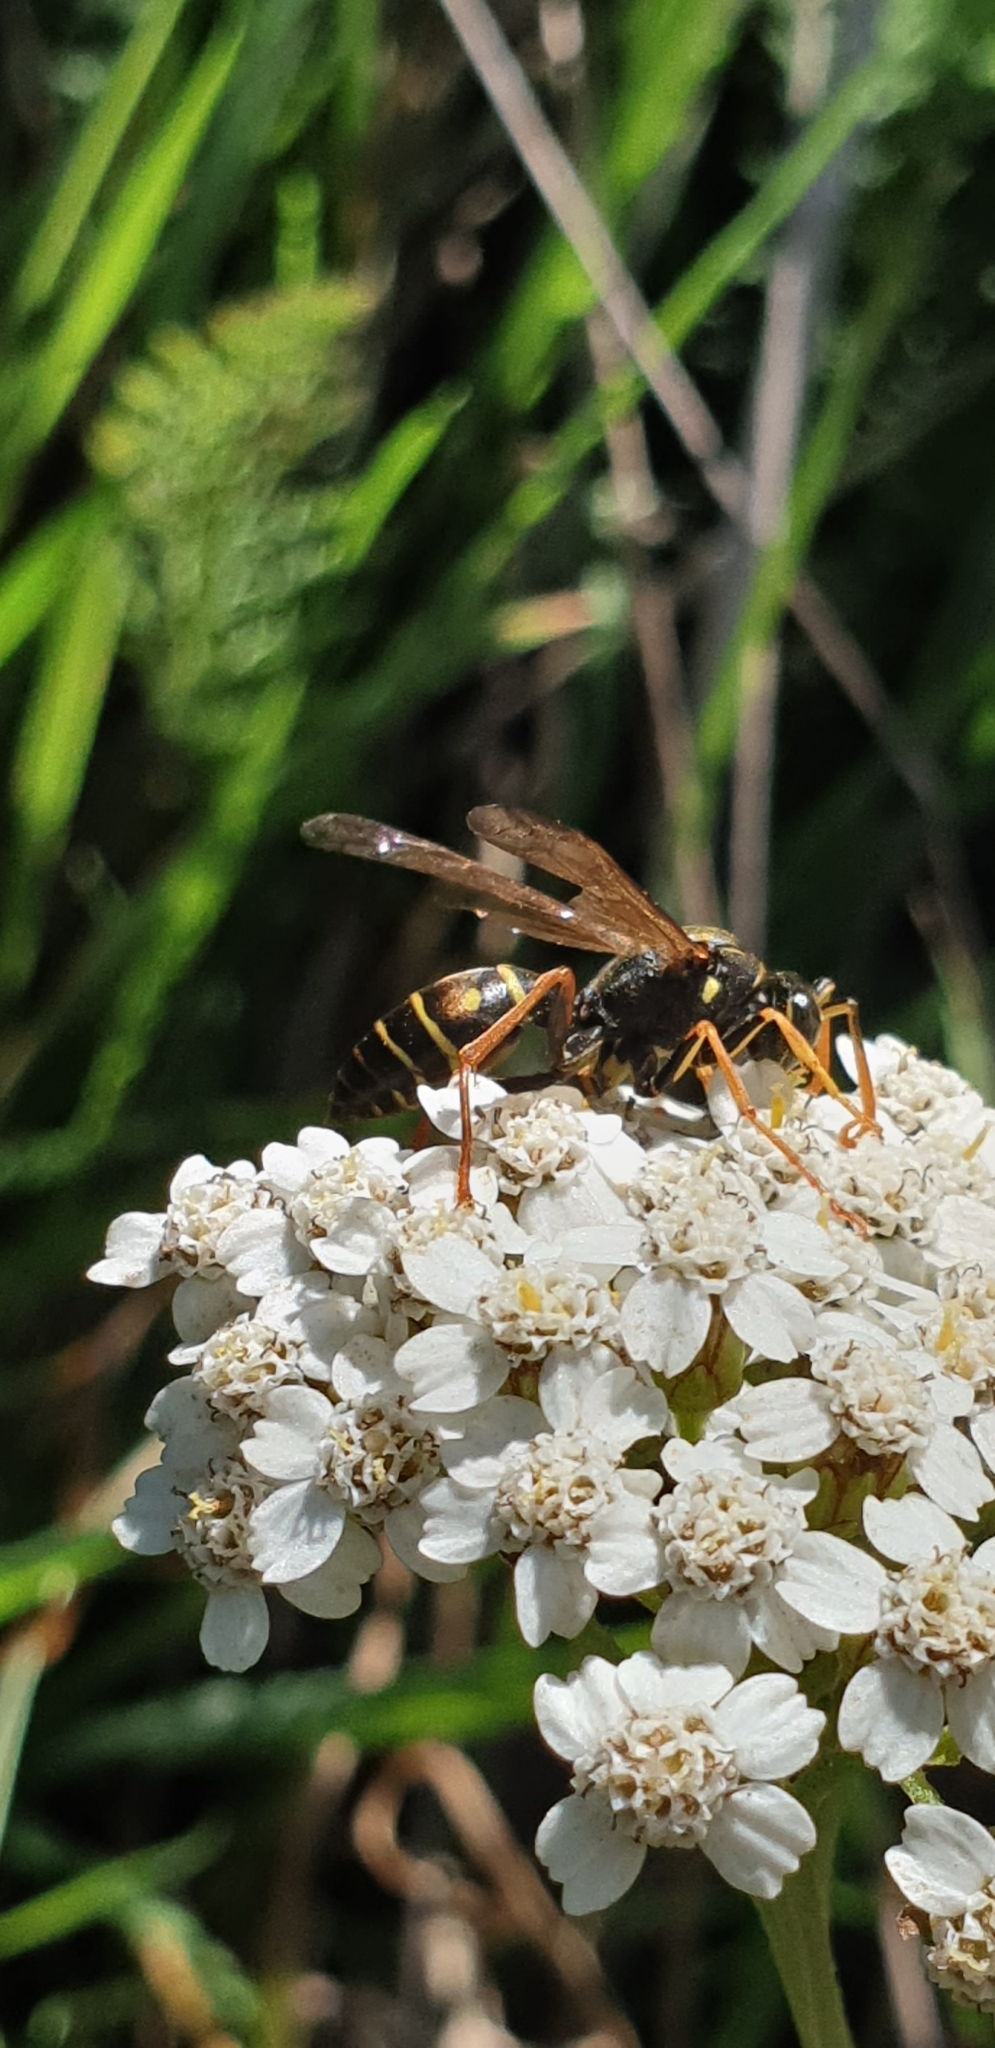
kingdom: Animalia
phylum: Arthropoda
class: Insecta
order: Hymenoptera
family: Eumenidae
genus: Polistes
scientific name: Polistes chinensis
